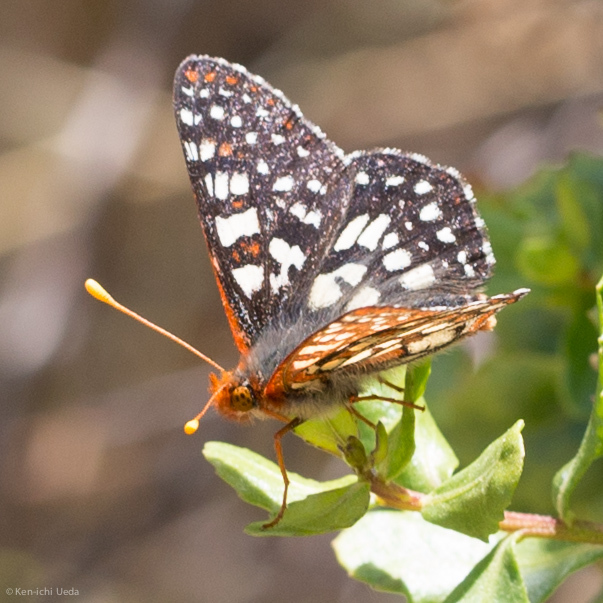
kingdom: Animalia
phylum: Arthropoda
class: Insecta
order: Lepidoptera
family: Nymphalidae
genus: Occidryas
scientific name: Occidryas chalcedona
